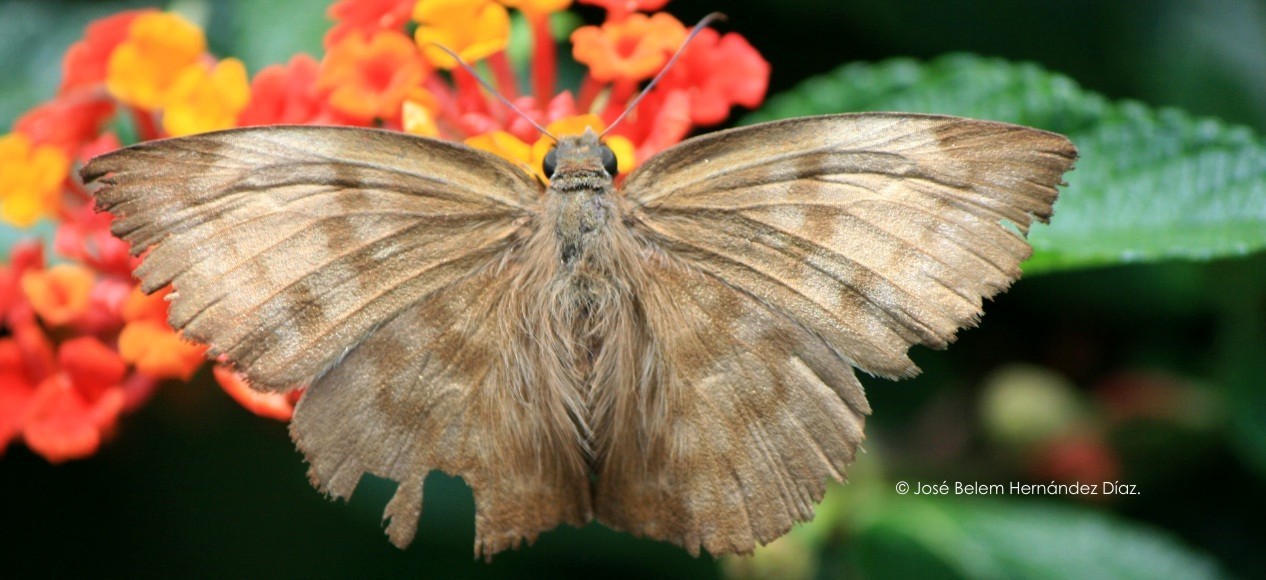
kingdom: Animalia
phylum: Arthropoda
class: Insecta
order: Lepidoptera
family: Hesperiidae
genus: Achlyodes
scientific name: Achlyodes pallida
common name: Pale sicklewing
